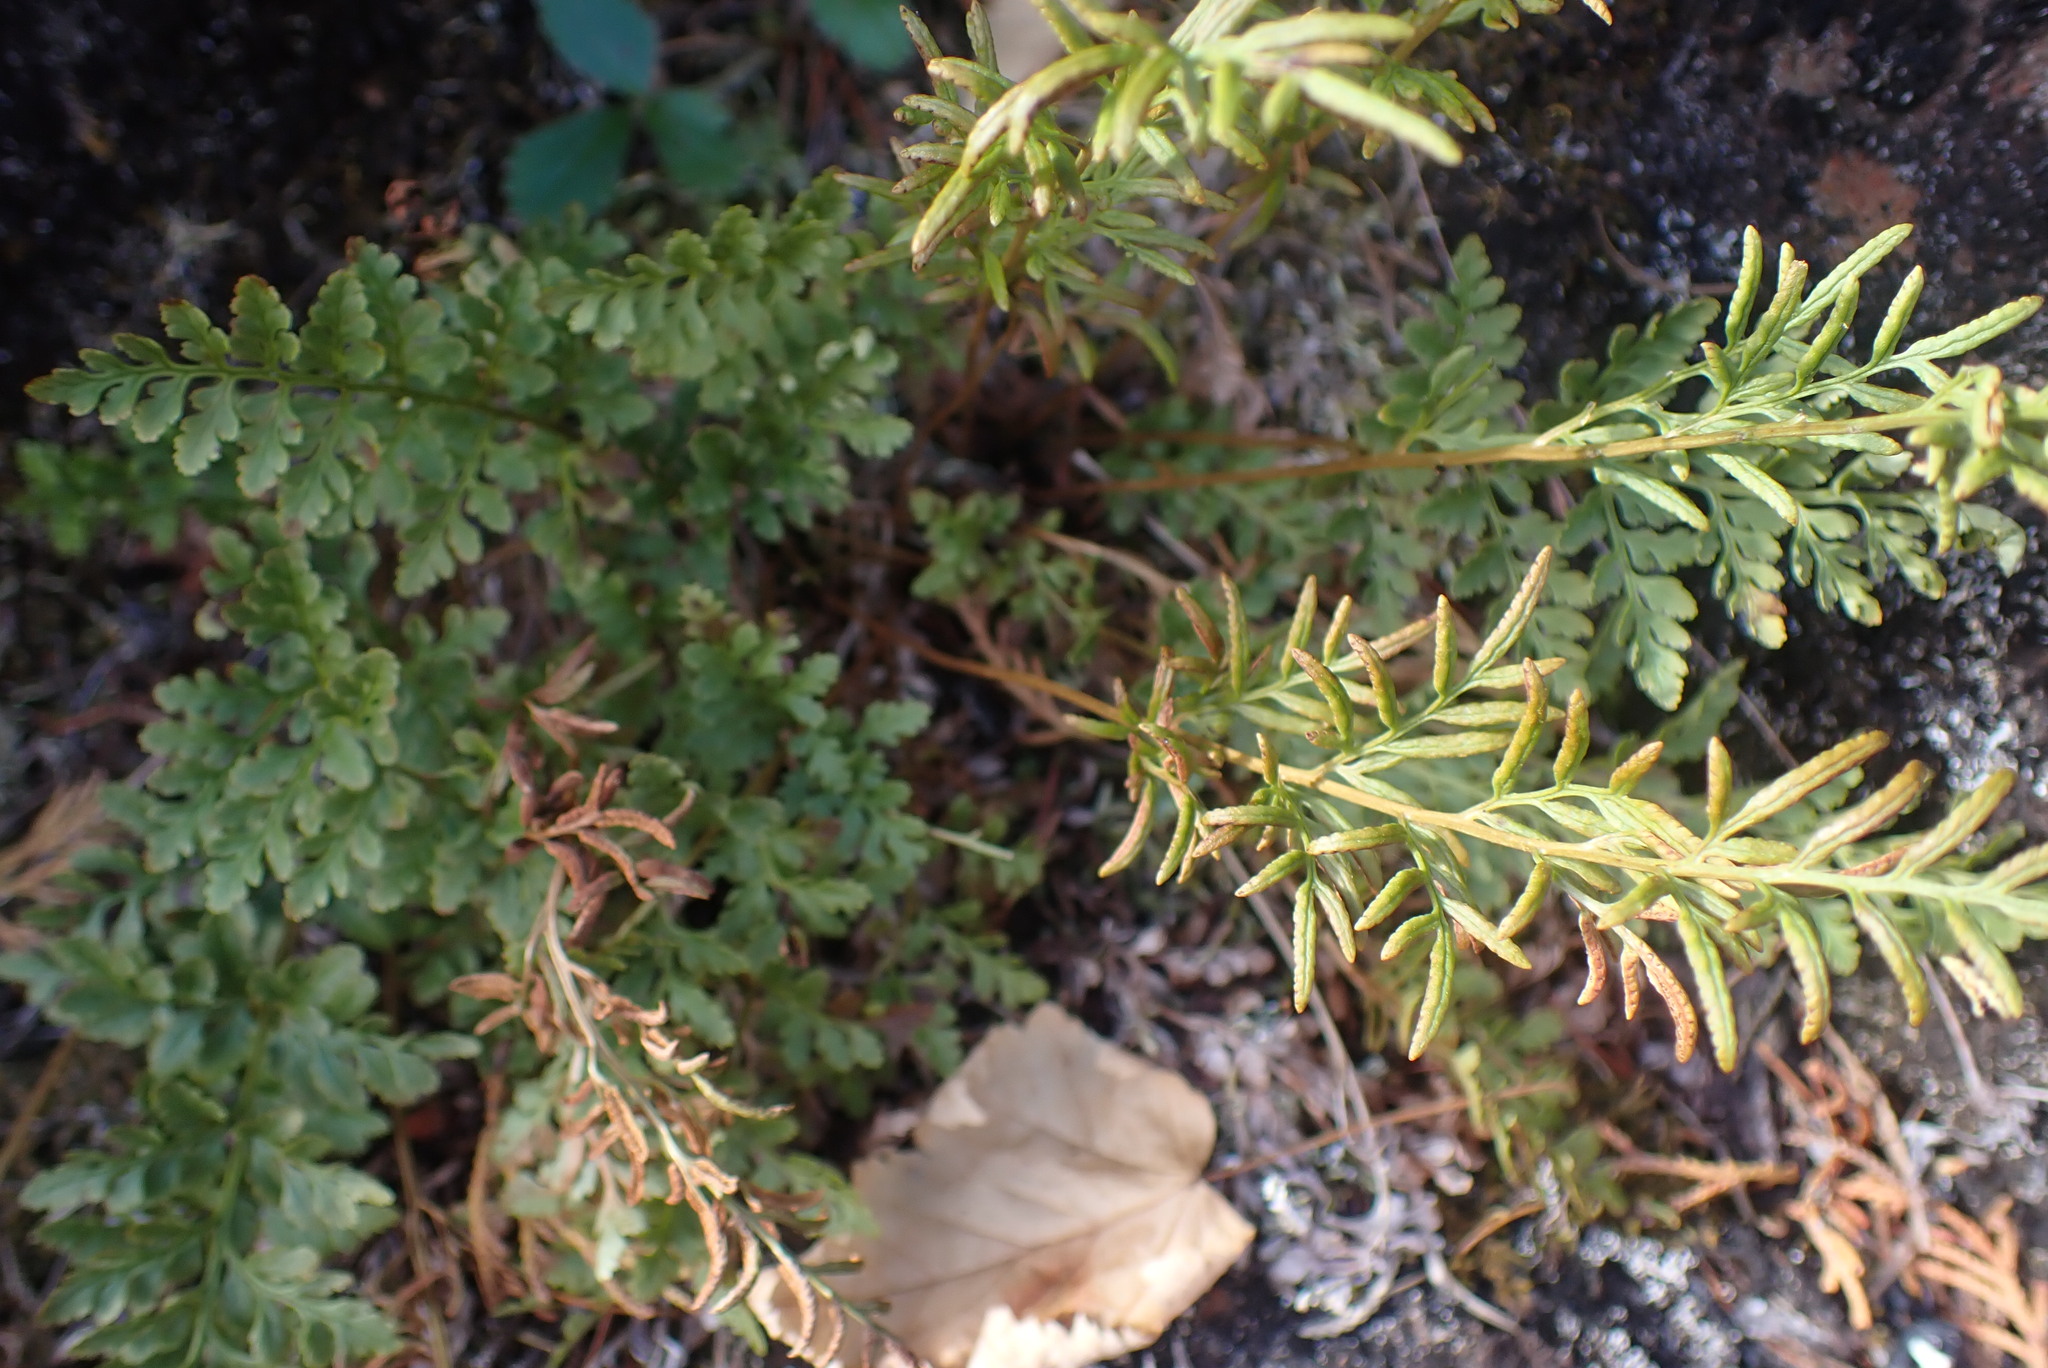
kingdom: Plantae
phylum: Tracheophyta
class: Polypodiopsida
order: Polypodiales
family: Pteridaceae
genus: Cryptogramma
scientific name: Cryptogramma acrostichoides
